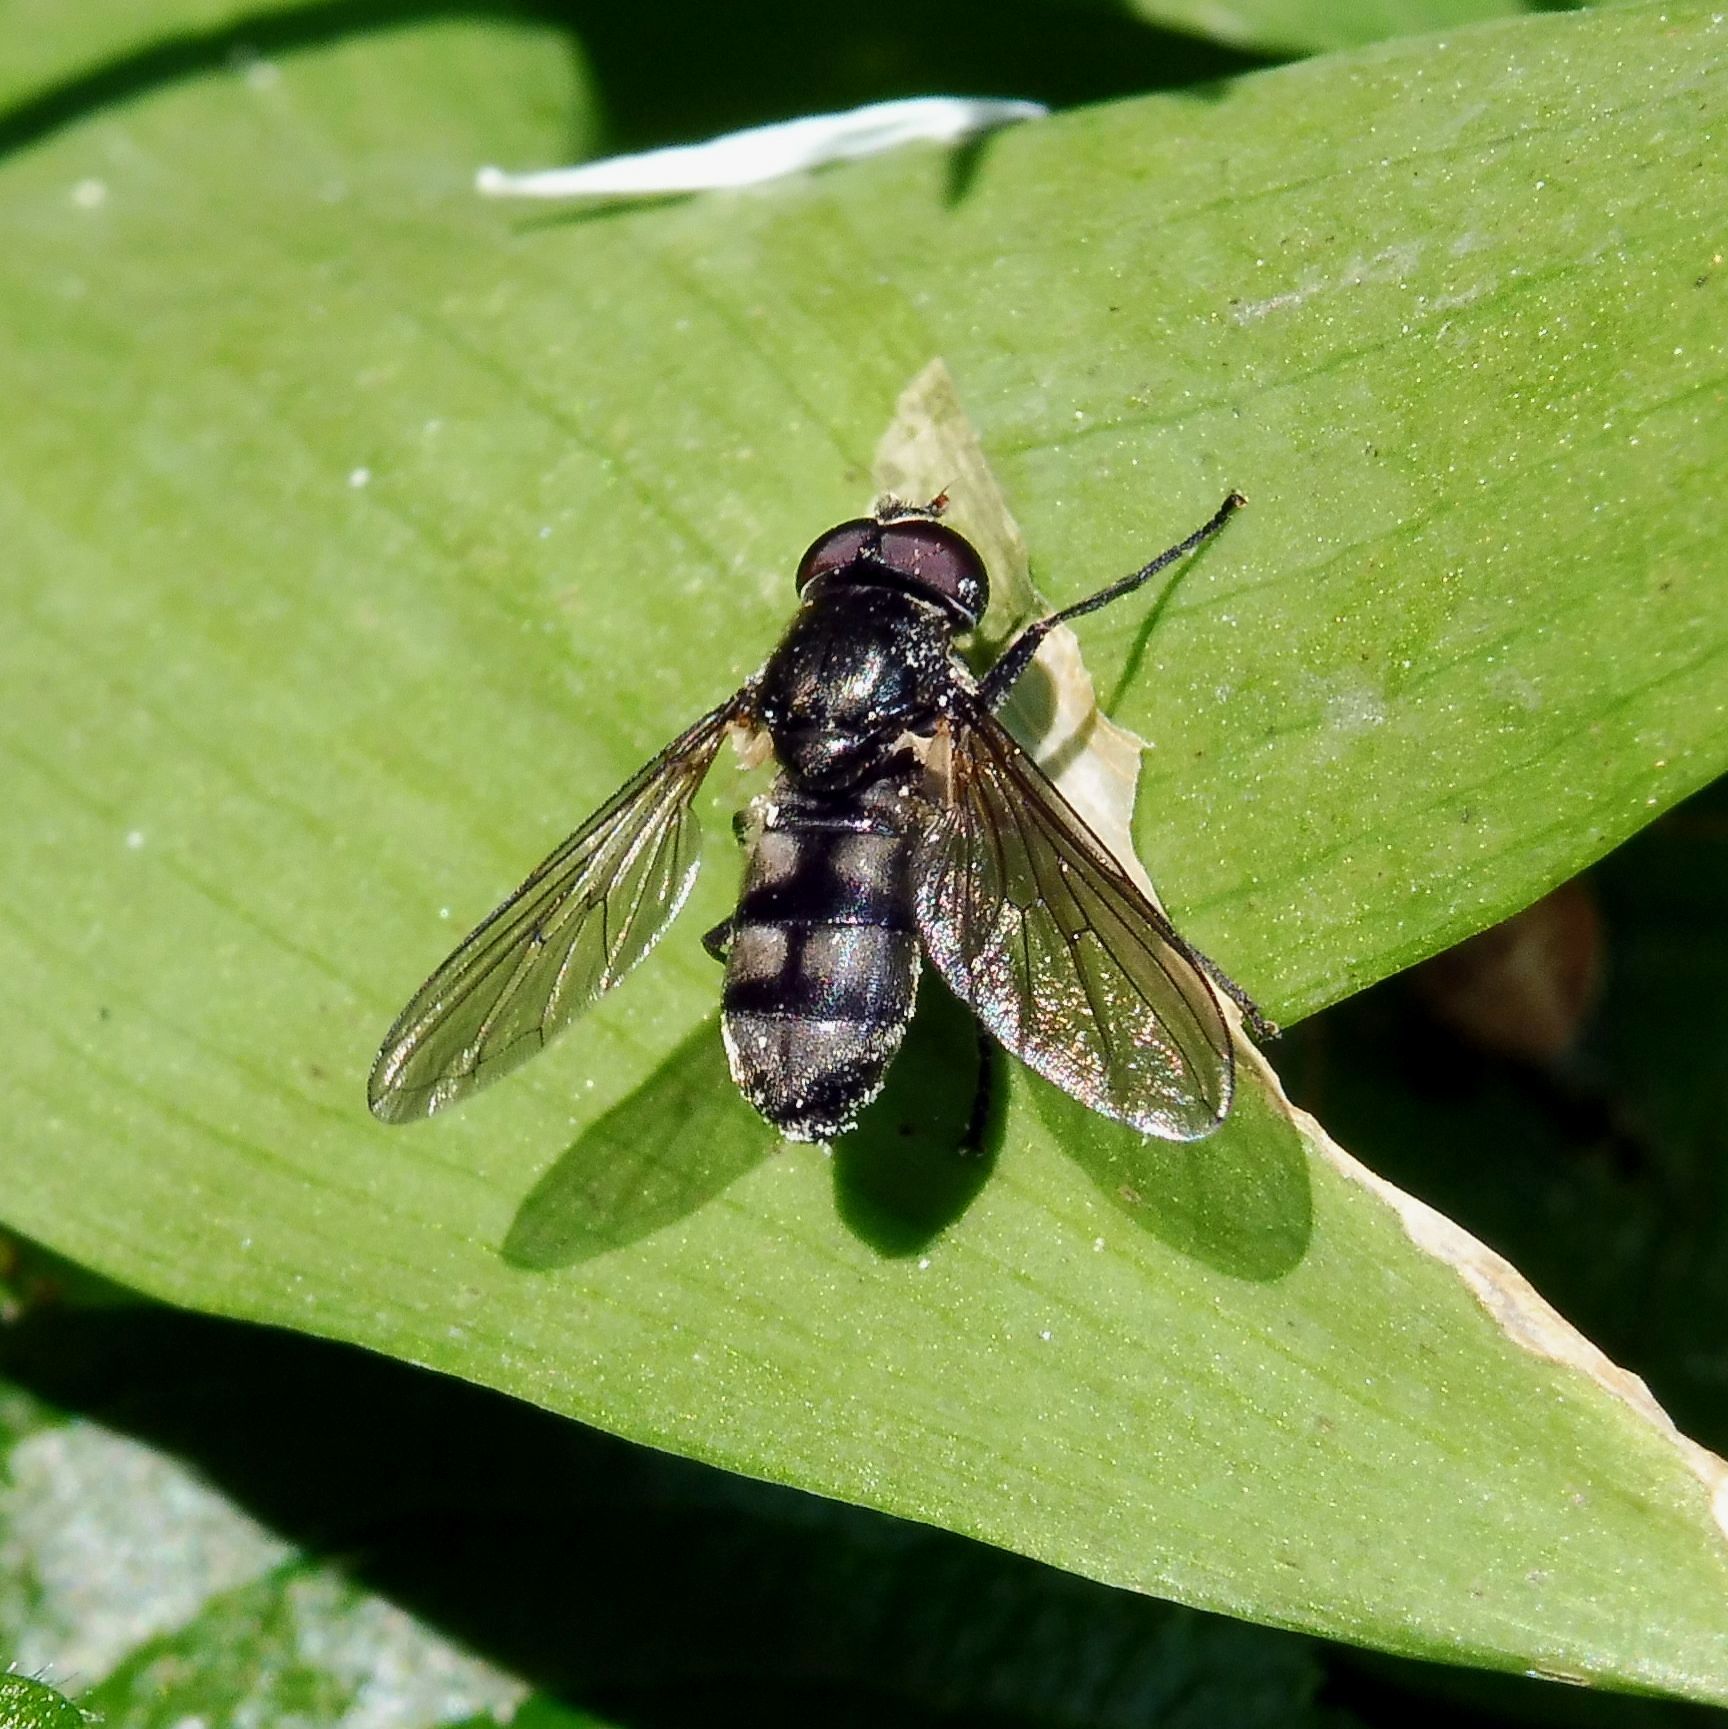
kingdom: Animalia
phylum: Arthropoda
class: Insecta
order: Diptera
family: Syrphidae
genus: Portevinia
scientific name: Portevinia maculata
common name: Ramson's hoverfly
